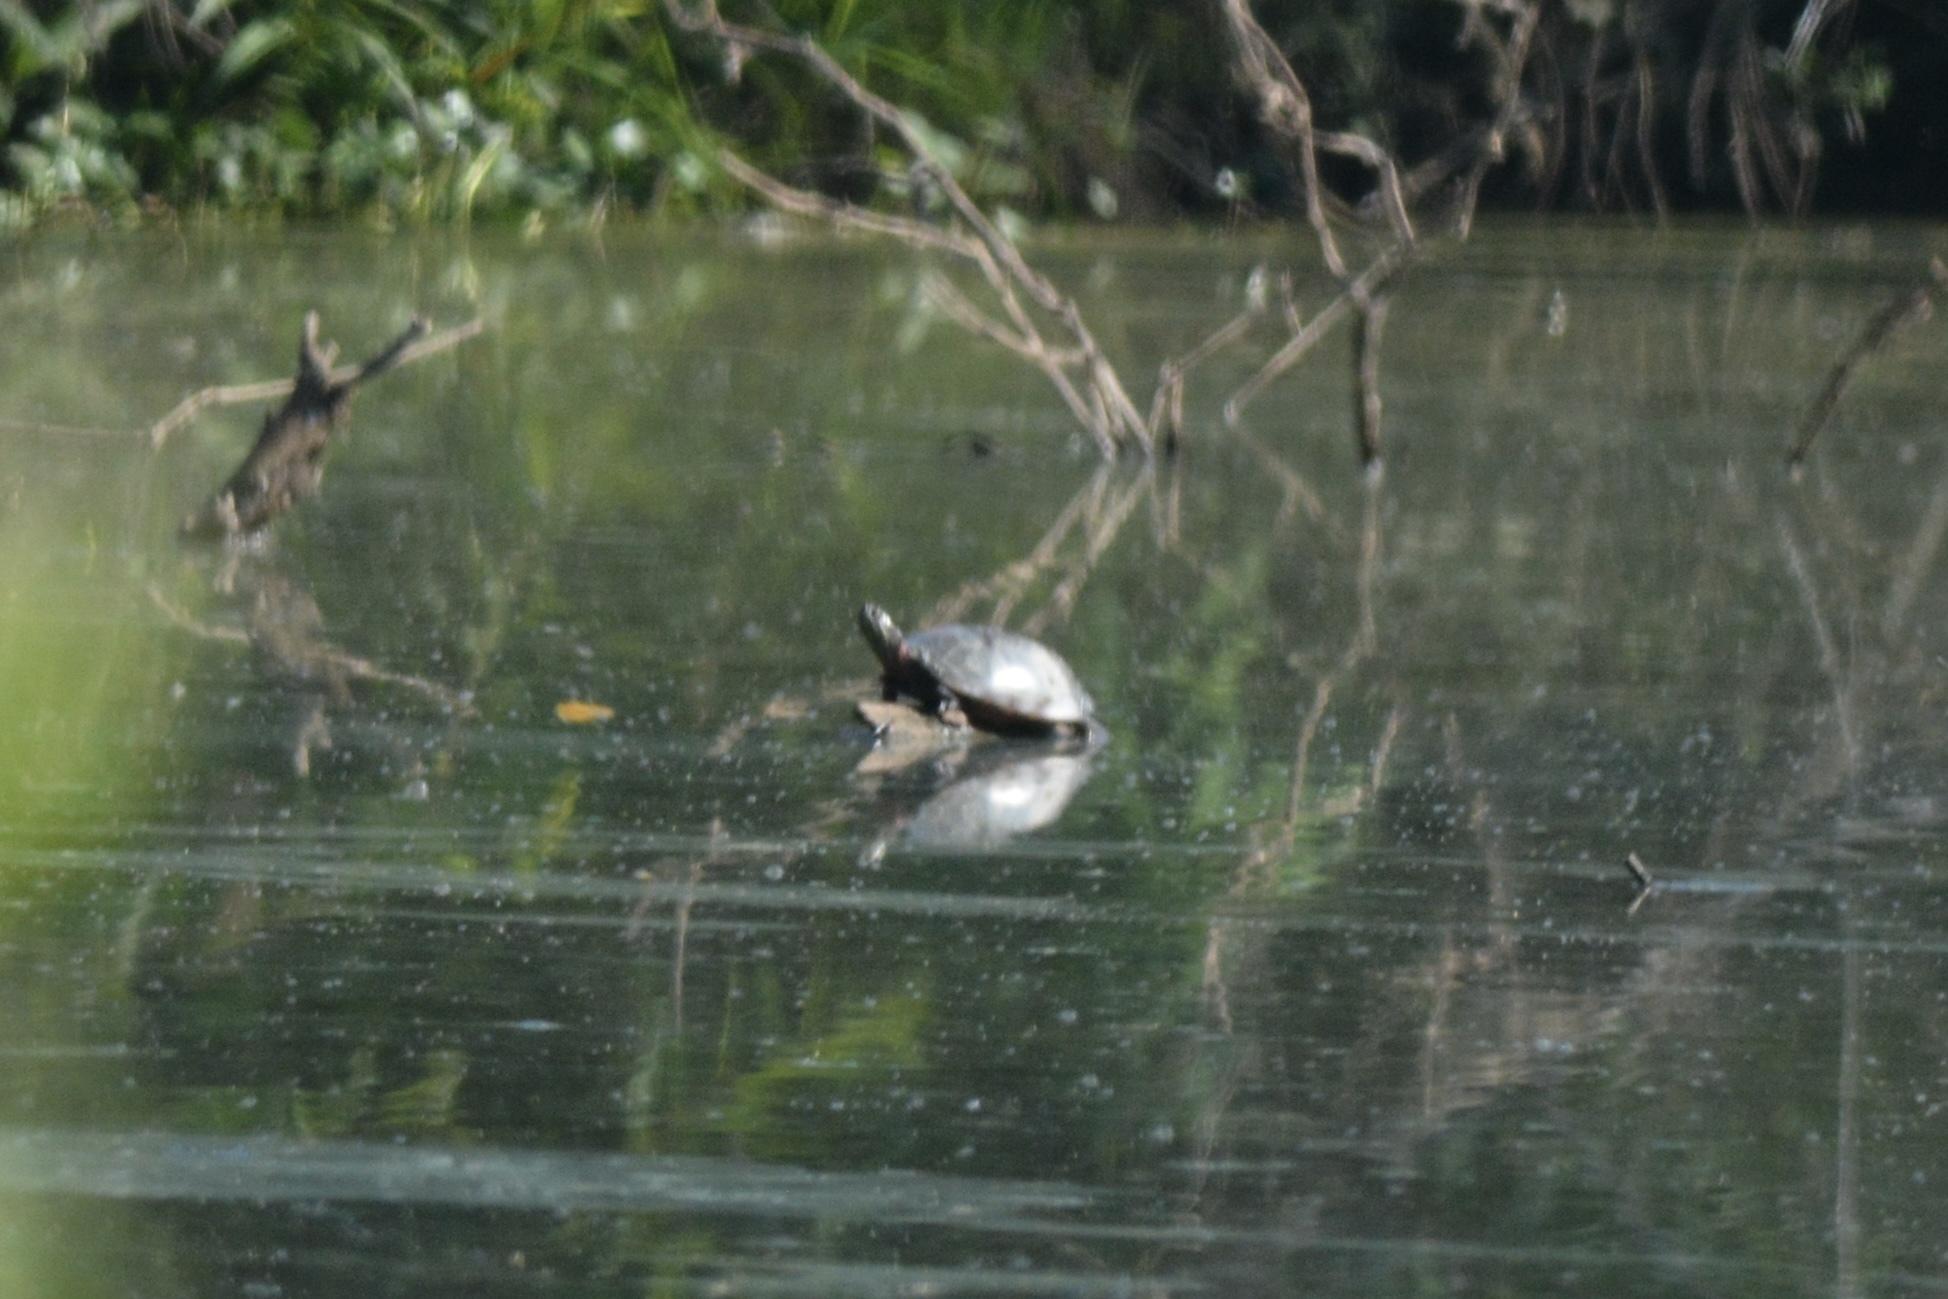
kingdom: Animalia
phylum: Chordata
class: Testudines
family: Emydidae
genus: Chrysemys
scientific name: Chrysemys picta
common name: Painted turtle
